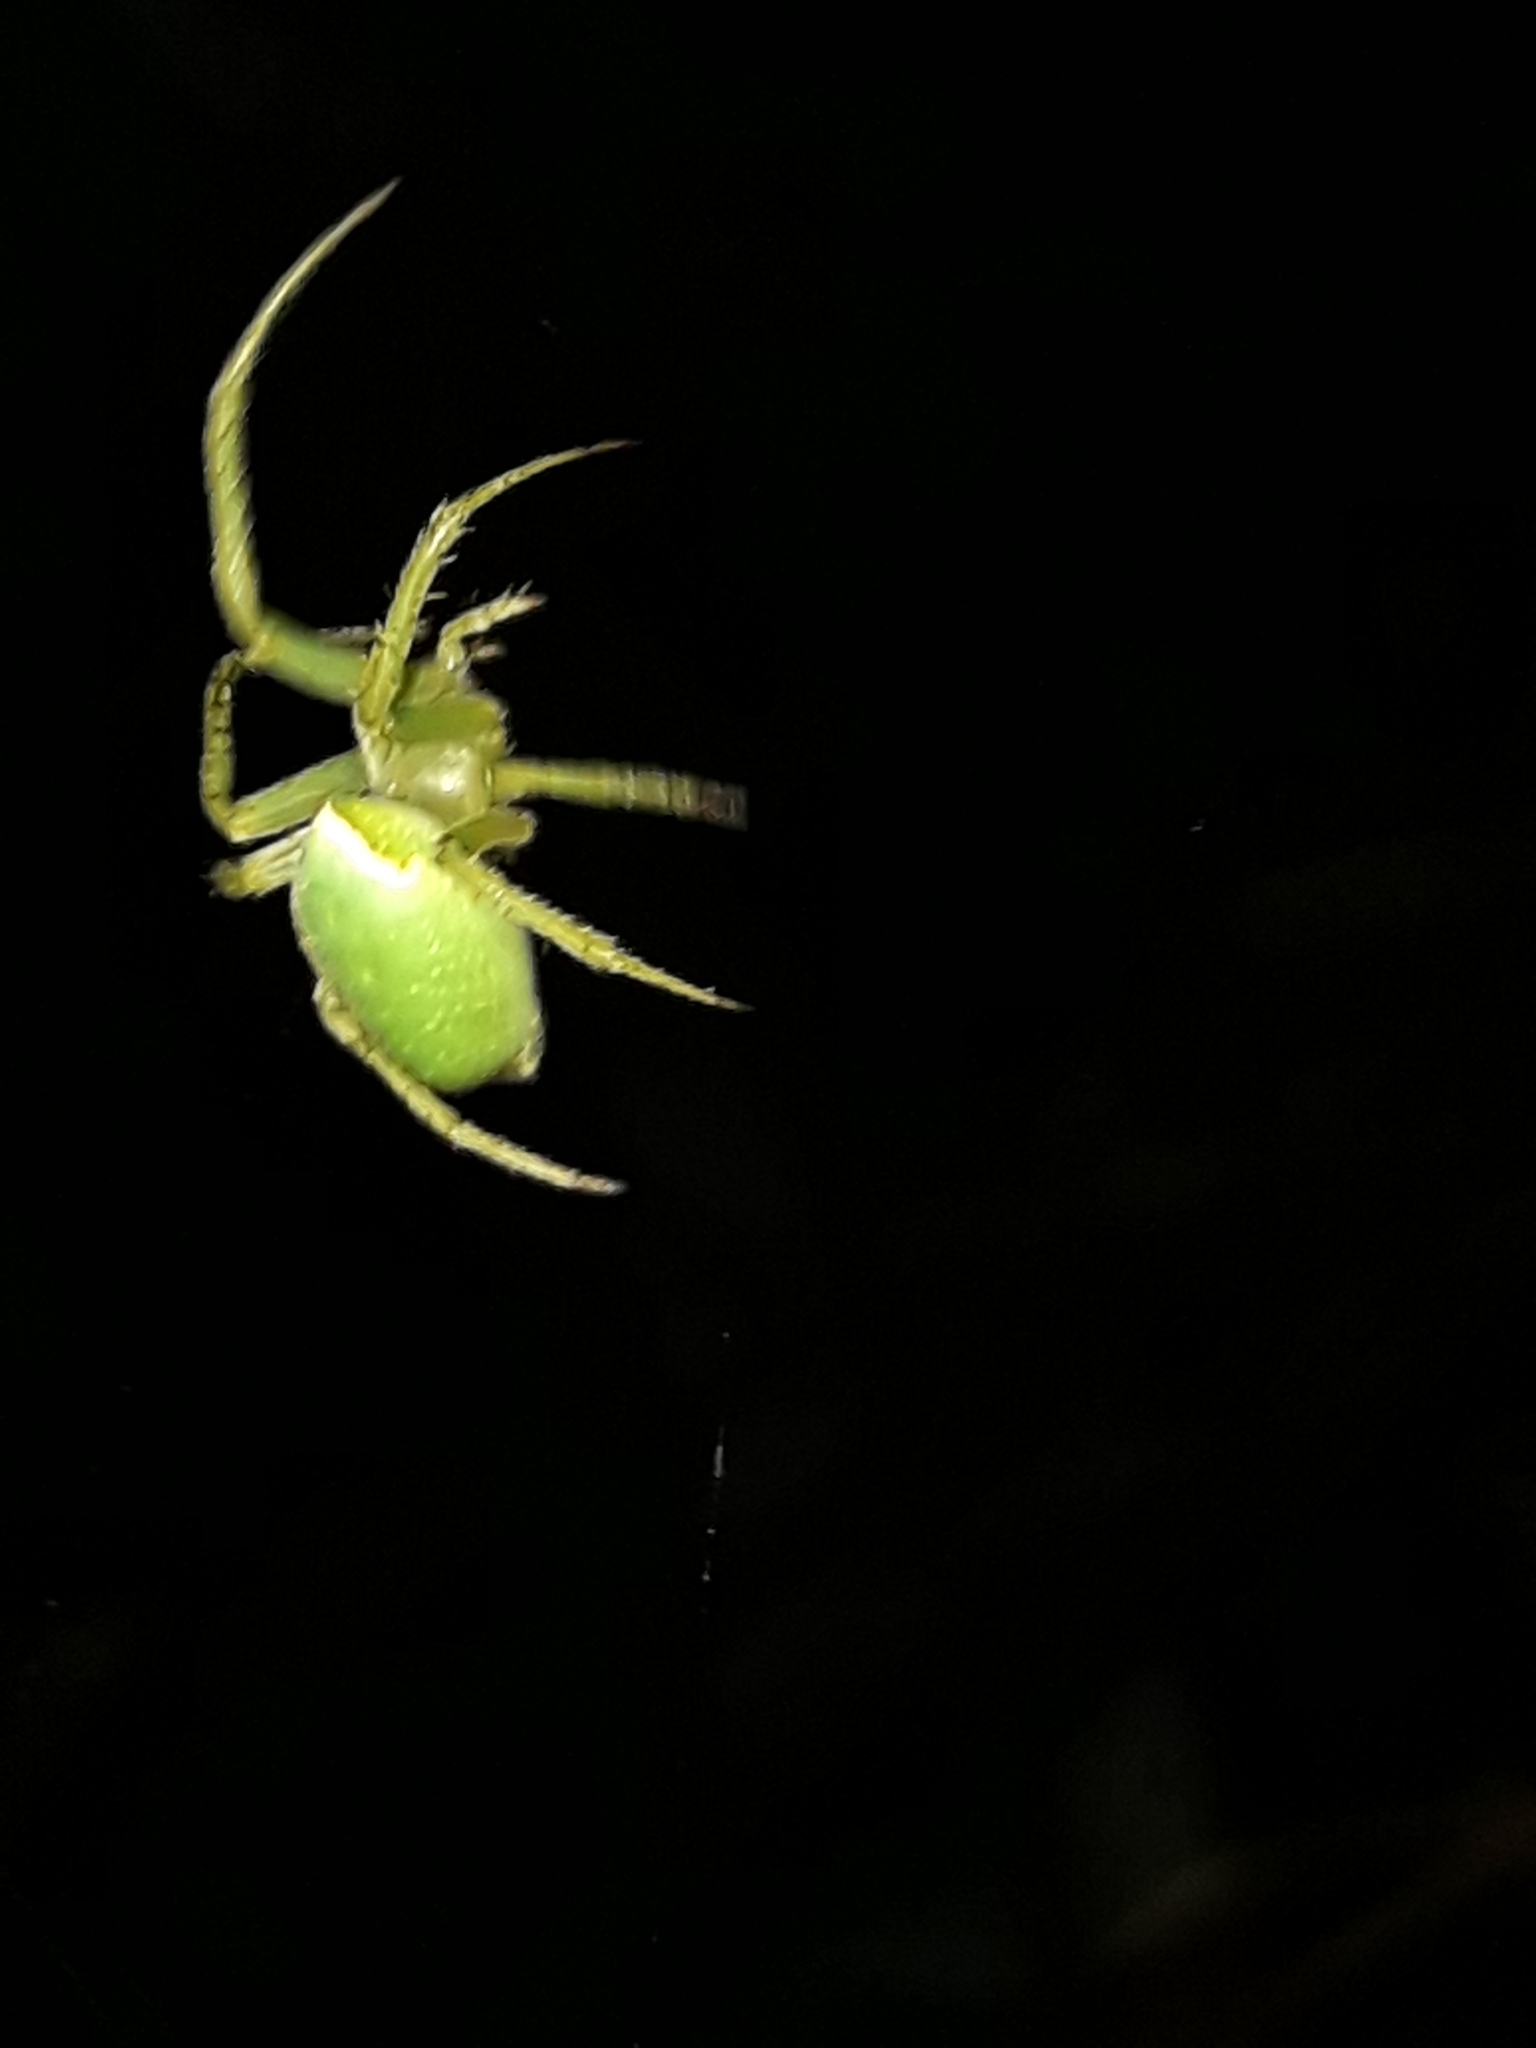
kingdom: Animalia
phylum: Arthropoda
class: Arachnida
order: Araneae
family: Araneidae
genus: Colaranea
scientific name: Colaranea viriditas
